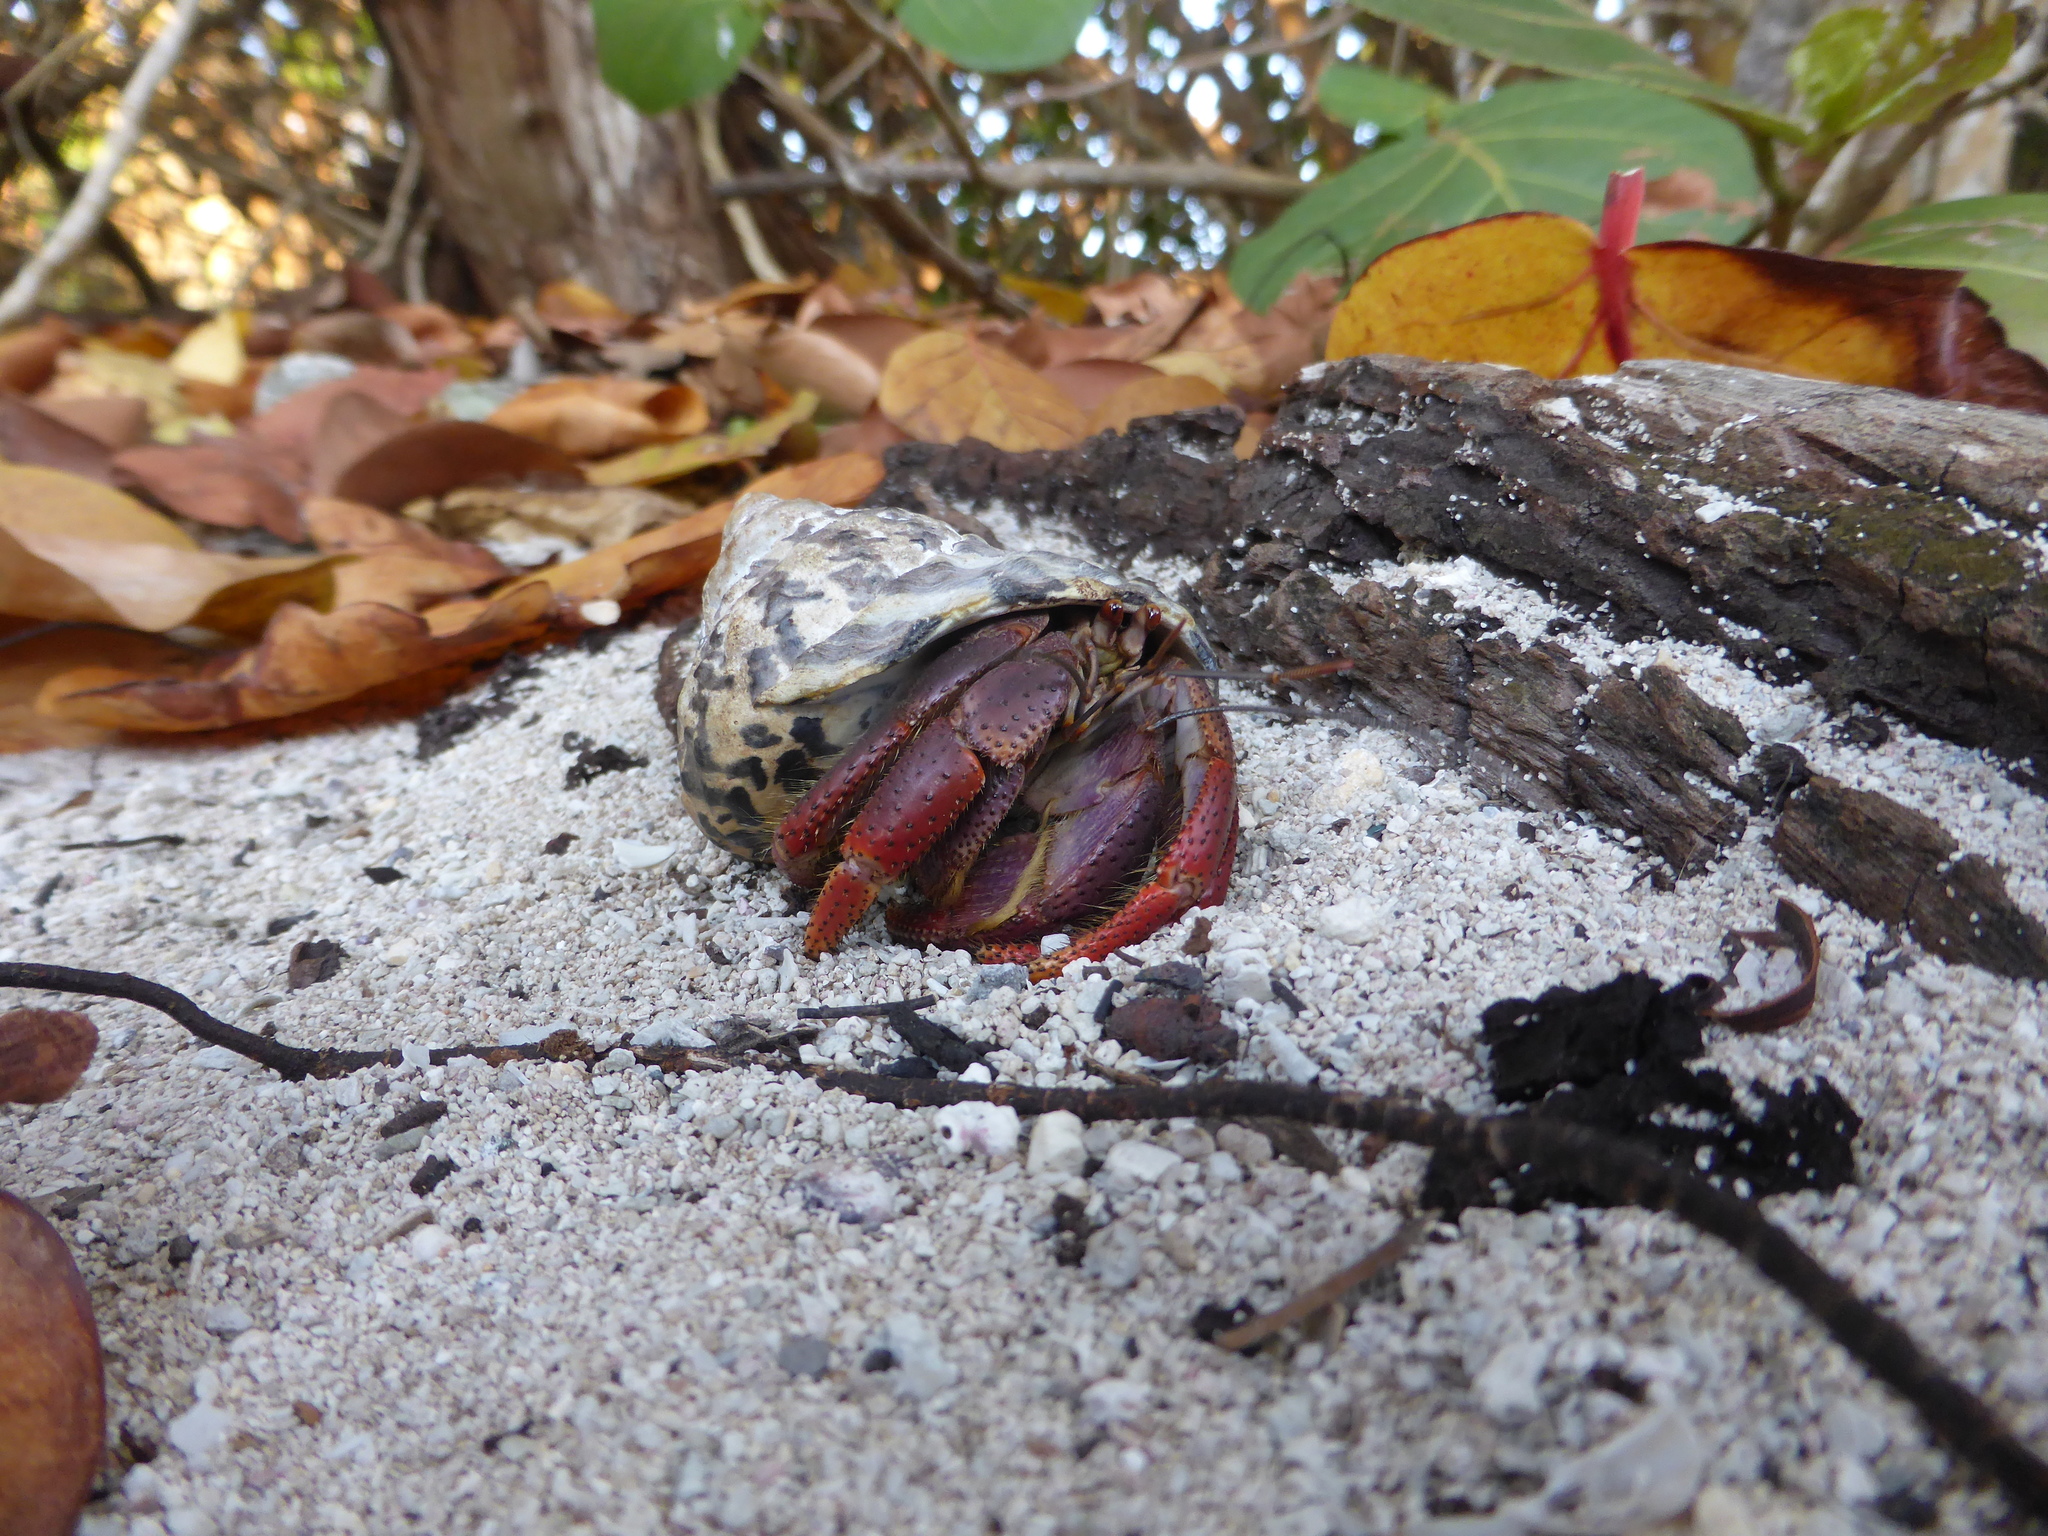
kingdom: Animalia
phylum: Arthropoda
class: Malacostraca
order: Decapoda
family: Coenobitidae
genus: Coenobita
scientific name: Coenobita clypeatus
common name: Caribbean hermit crab
